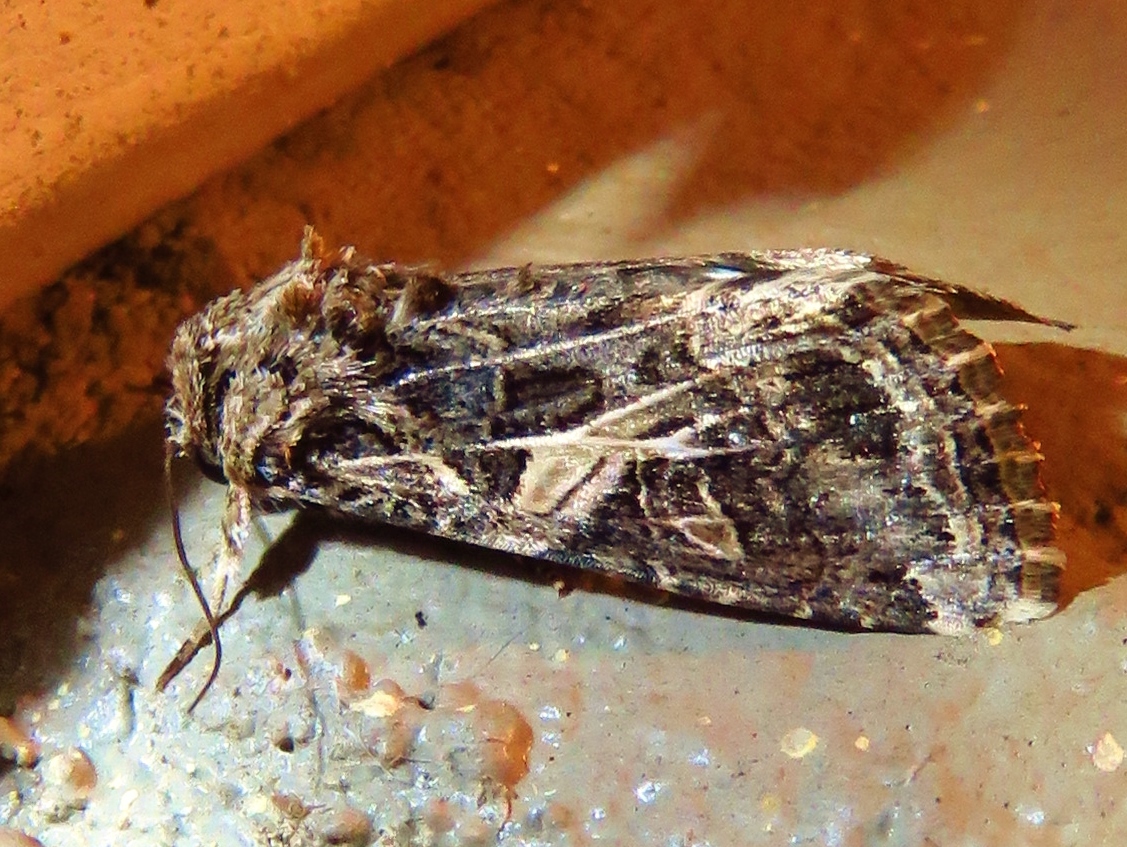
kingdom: Animalia
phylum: Arthropoda
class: Insecta
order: Lepidoptera
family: Noctuidae
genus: Spodoptera
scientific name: Spodoptera ornithogalli
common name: Yellow-striped armyworm
